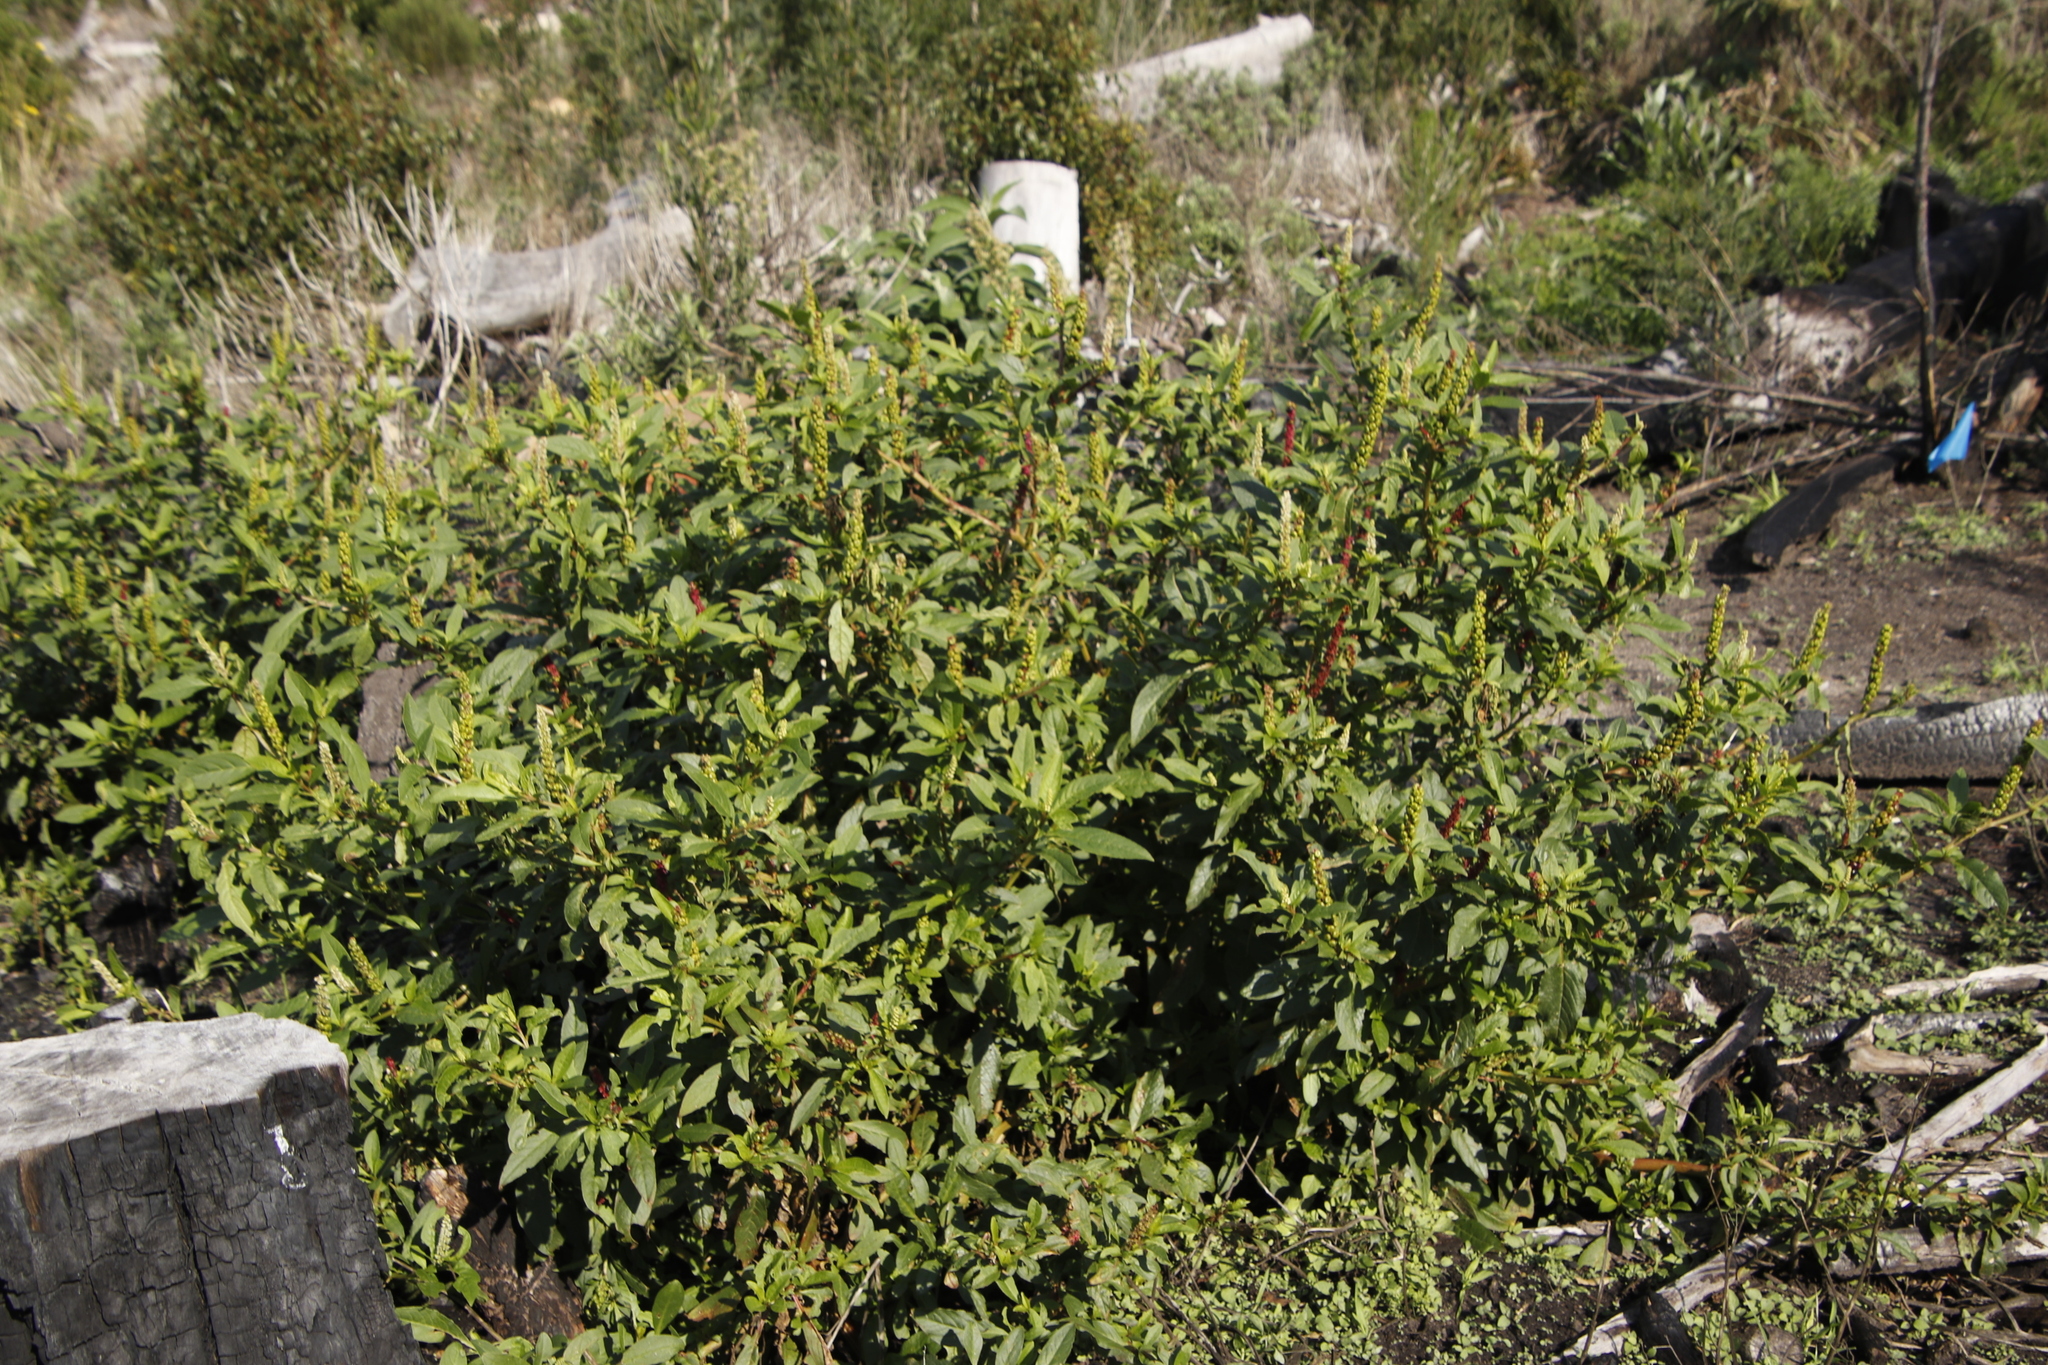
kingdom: Plantae
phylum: Tracheophyta
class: Magnoliopsida
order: Caryophyllales
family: Phytolaccaceae
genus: Phytolacca
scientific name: Phytolacca icosandra
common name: Button pokeweed
